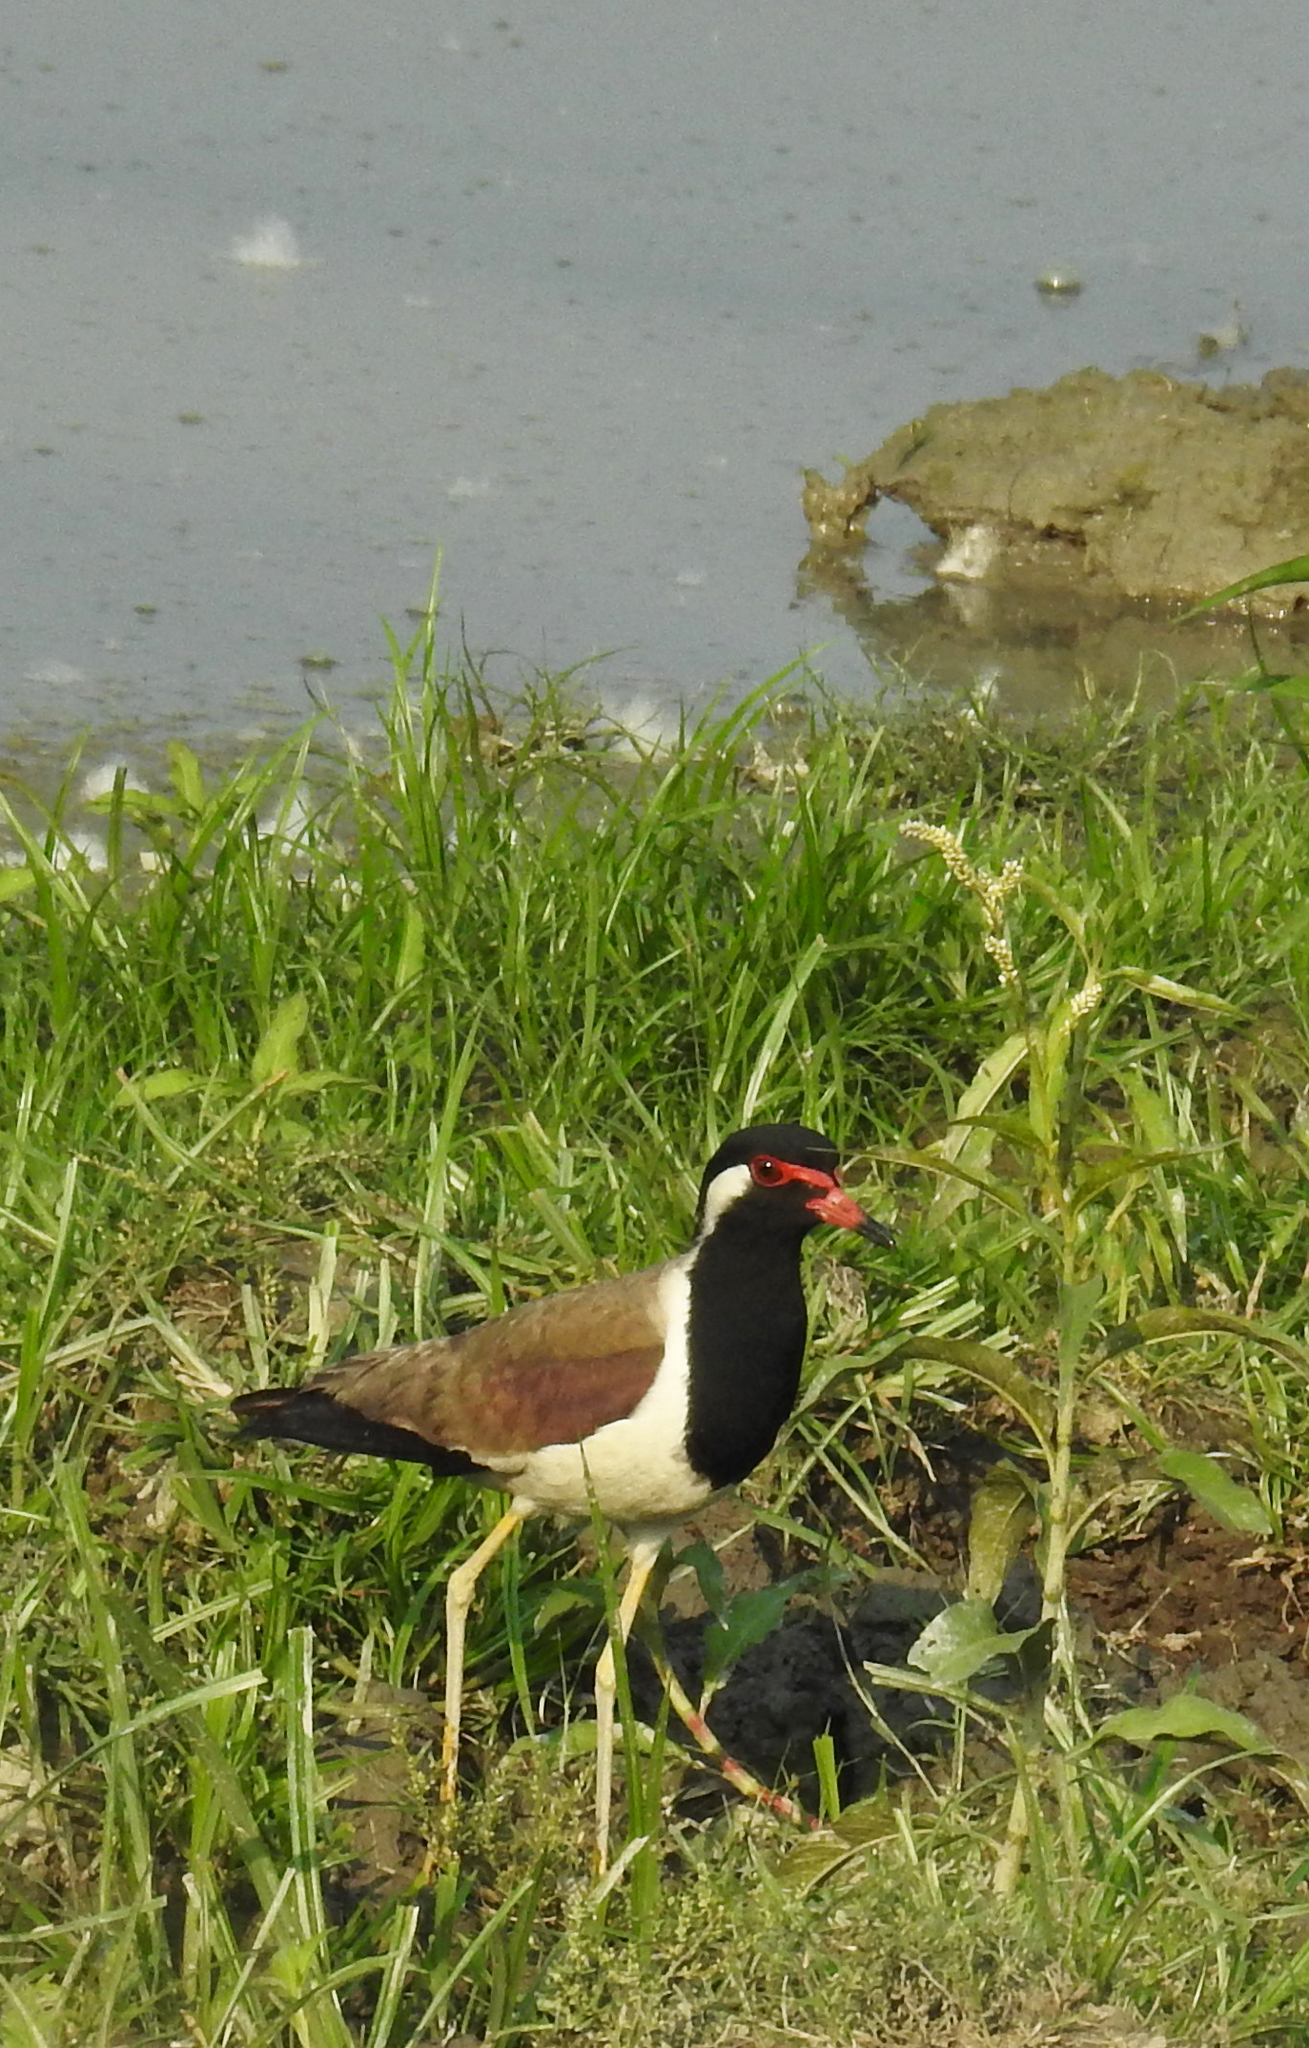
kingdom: Animalia
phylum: Chordata
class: Aves
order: Charadriiformes
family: Charadriidae
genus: Vanellus
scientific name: Vanellus indicus
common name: Red-wattled lapwing
